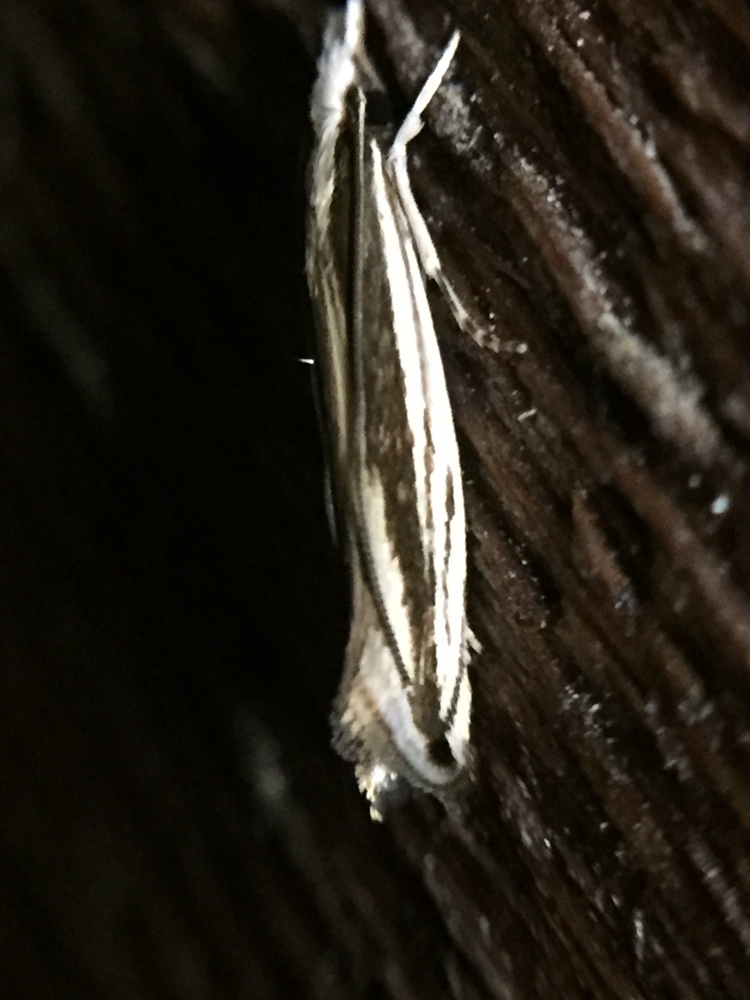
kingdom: Animalia
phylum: Arthropoda
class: Insecta
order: Lepidoptera
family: Tineidae
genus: Erechthias
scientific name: Erechthias stilbella
